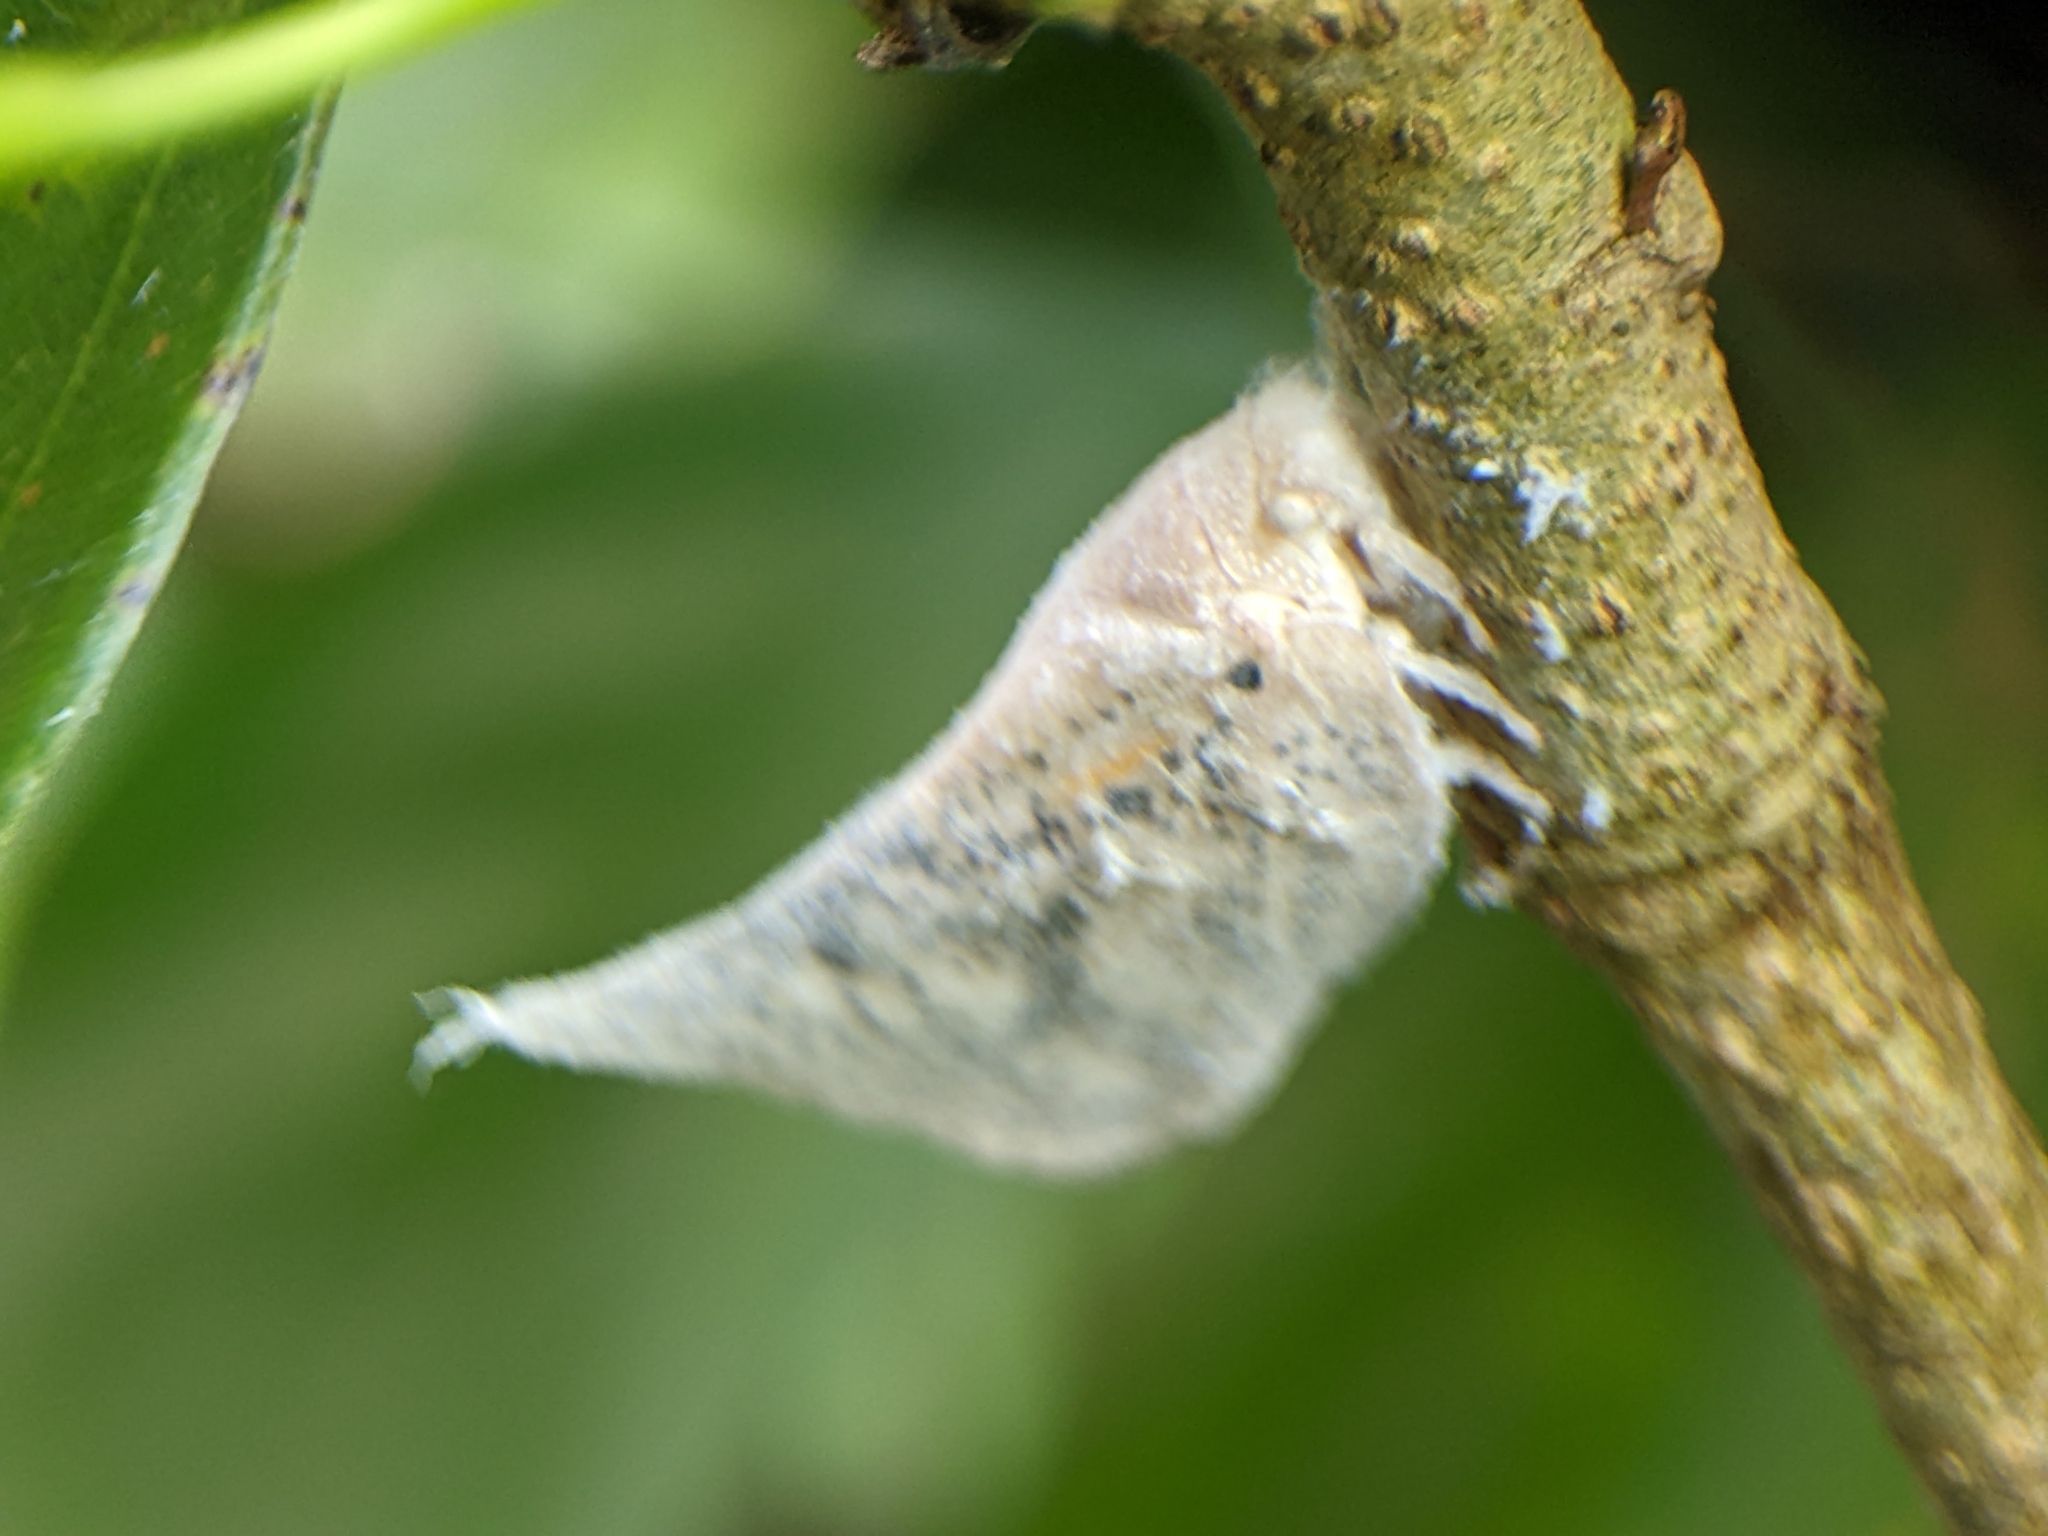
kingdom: Animalia
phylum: Arthropoda
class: Insecta
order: Hemiptera
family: Flatidae
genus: Lawana
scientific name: Lawana conspersa
